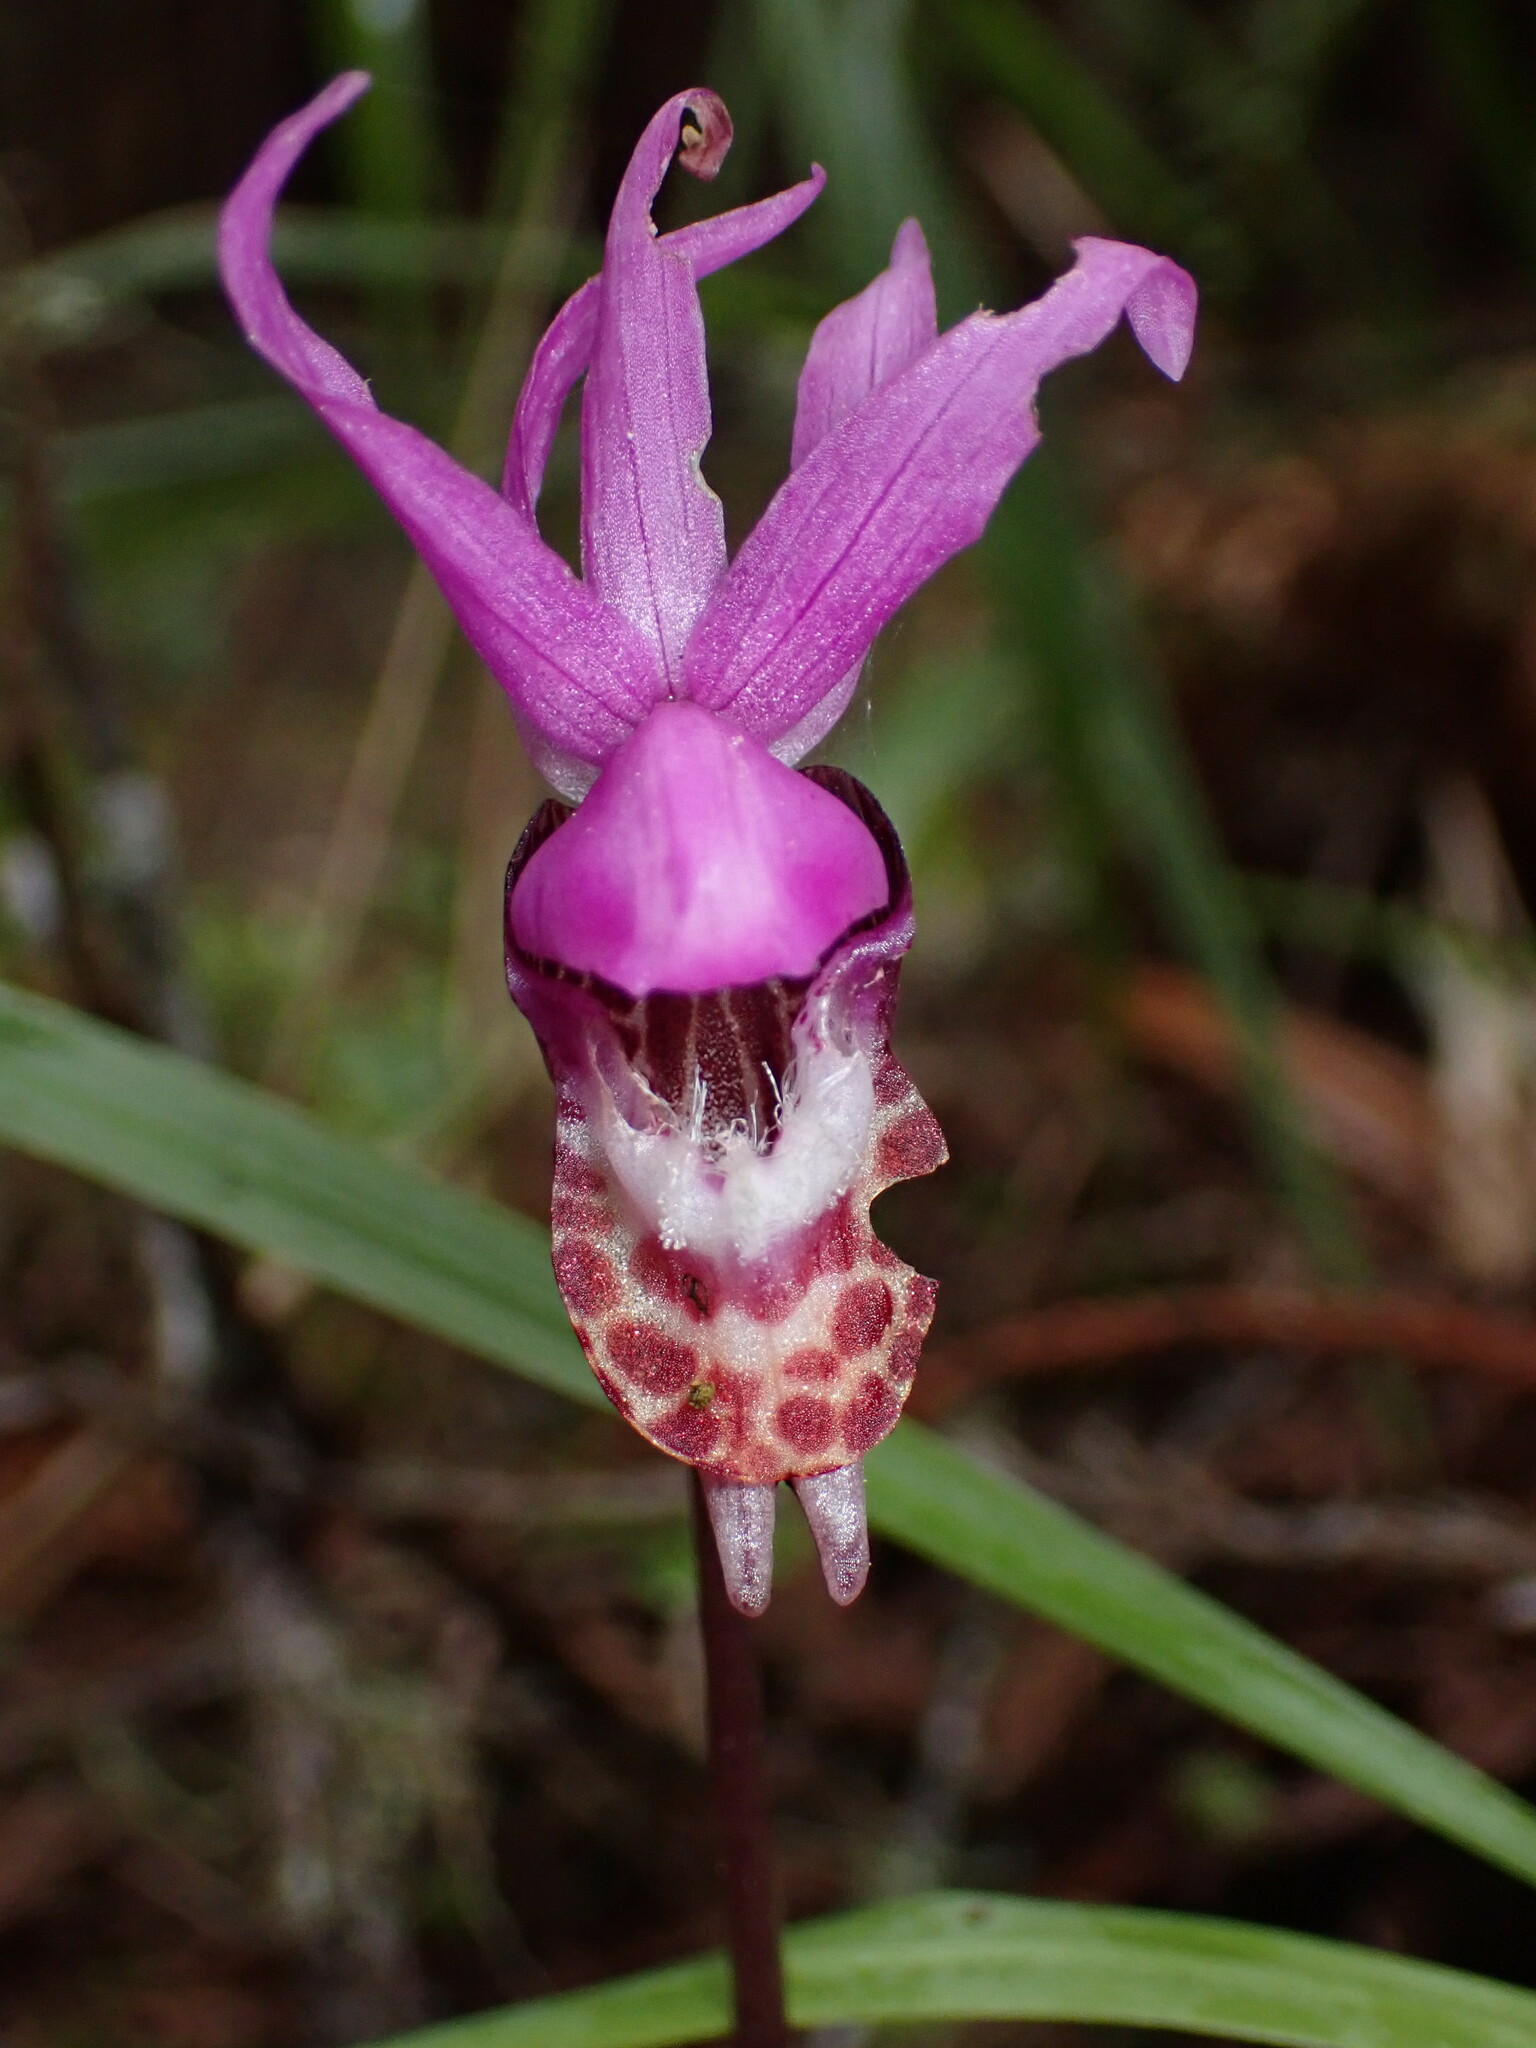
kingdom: Plantae
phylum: Tracheophyta
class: Liliopsida
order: Asparagales
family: Orchidaceae
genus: Calypso
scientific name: Calypso bulbosa
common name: Calypso
